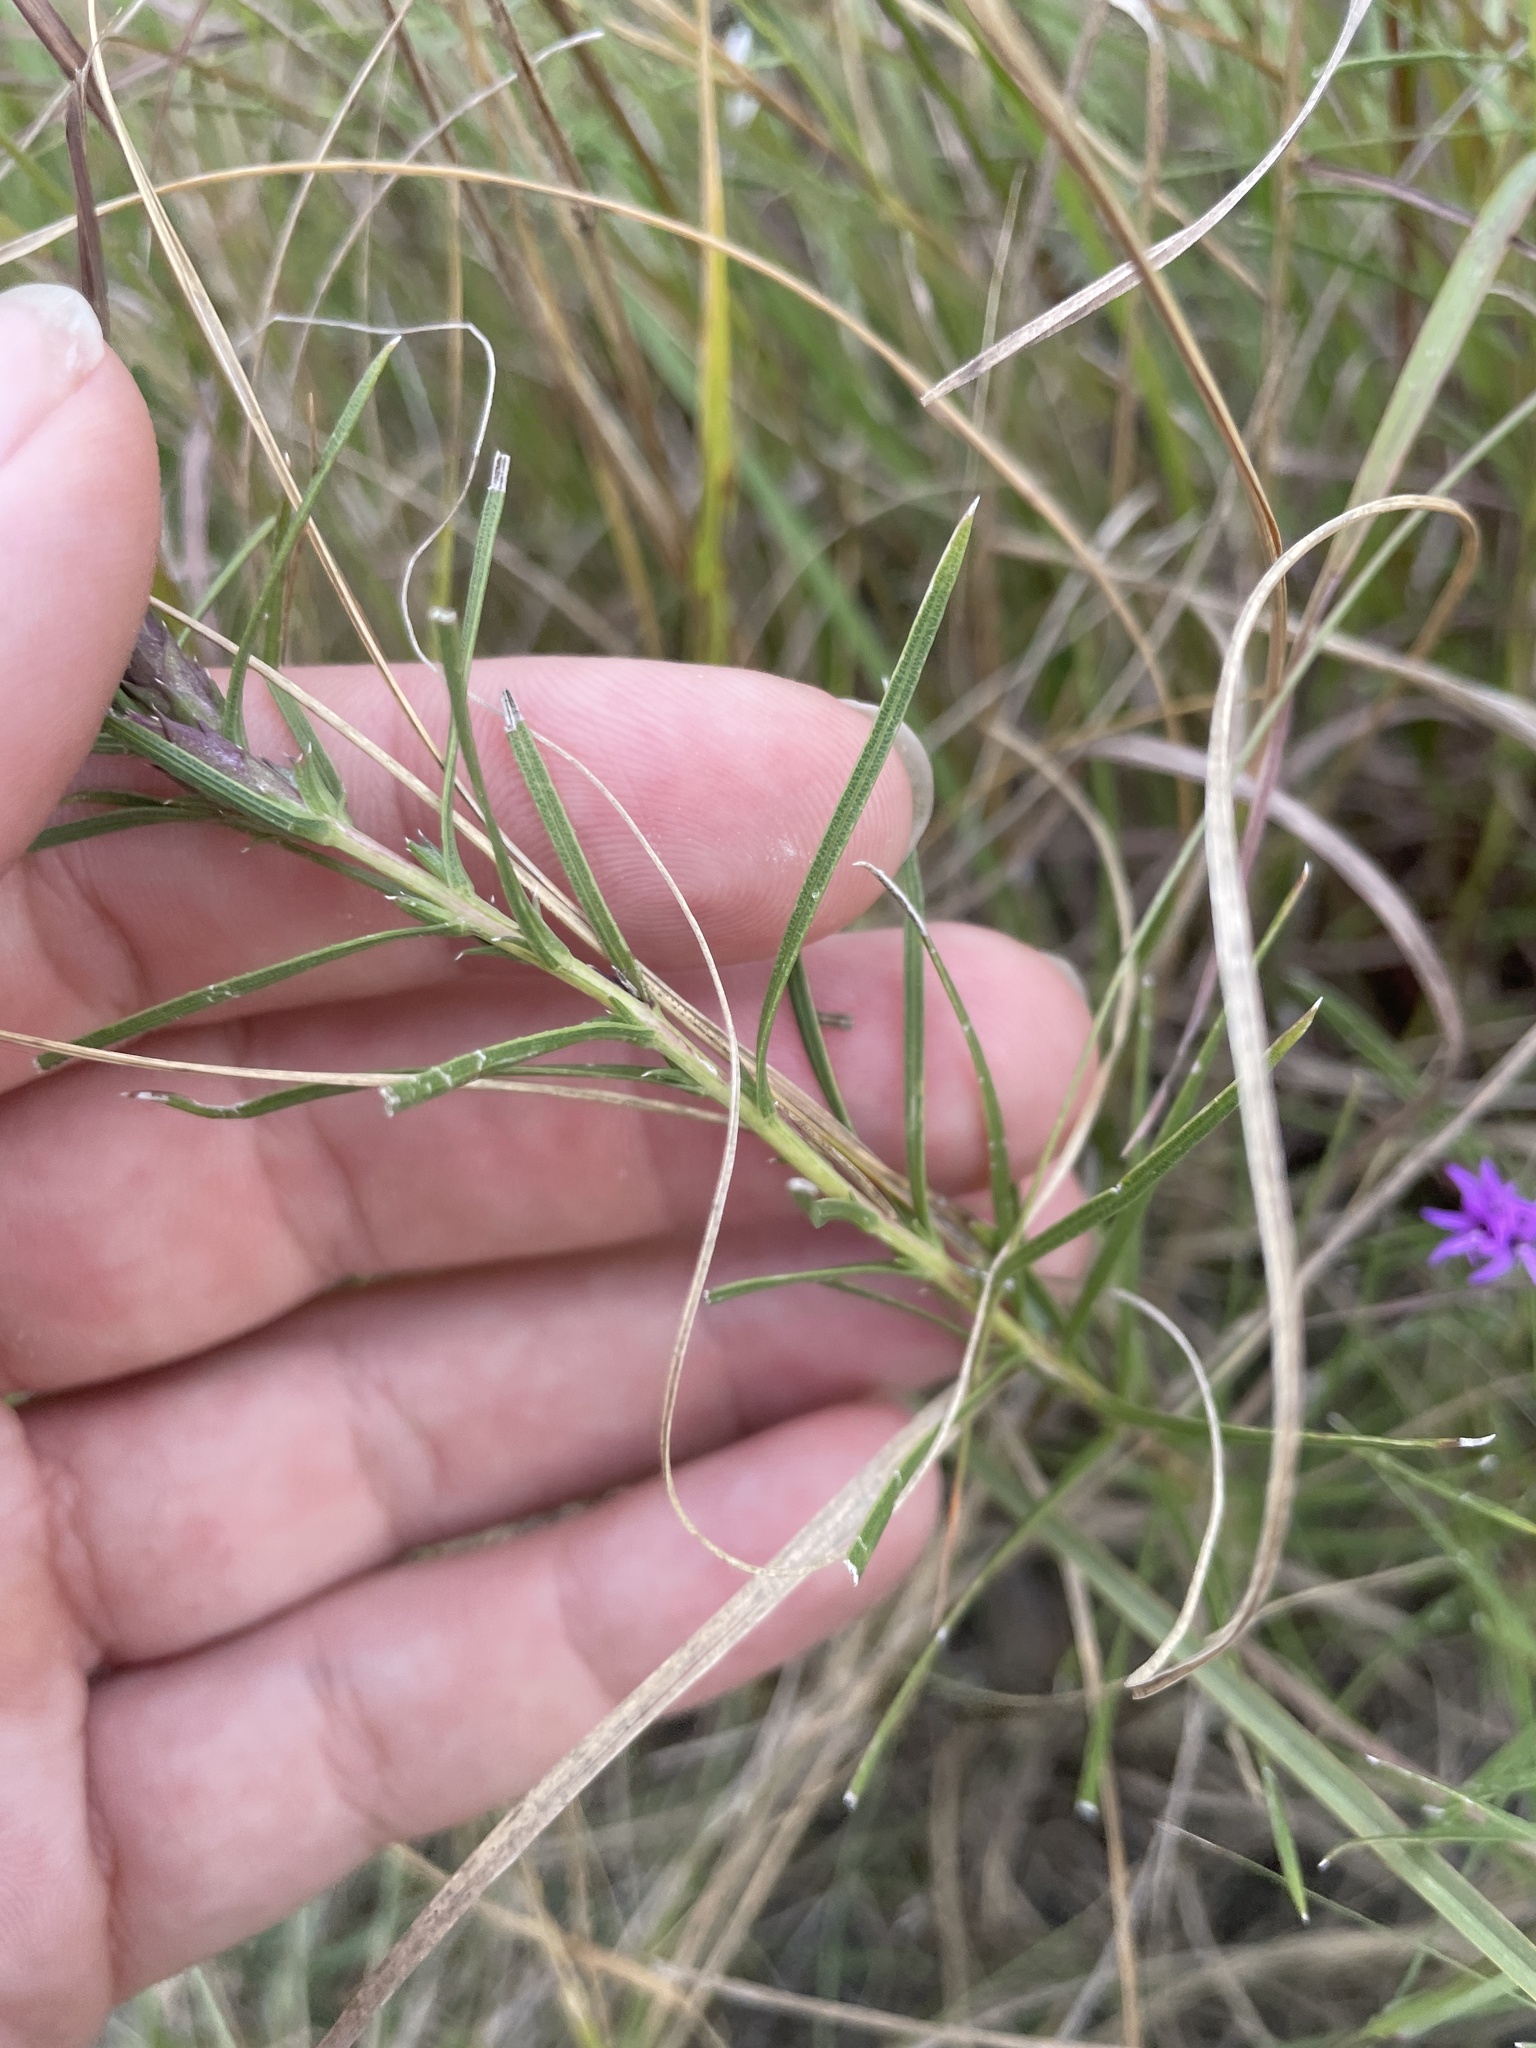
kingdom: Plantae
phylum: Tracheophyta
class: Magnoliopsida
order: Asterales
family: Asteraceae
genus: Liatris
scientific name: Liatris punctata
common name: Dotted gayfeather
